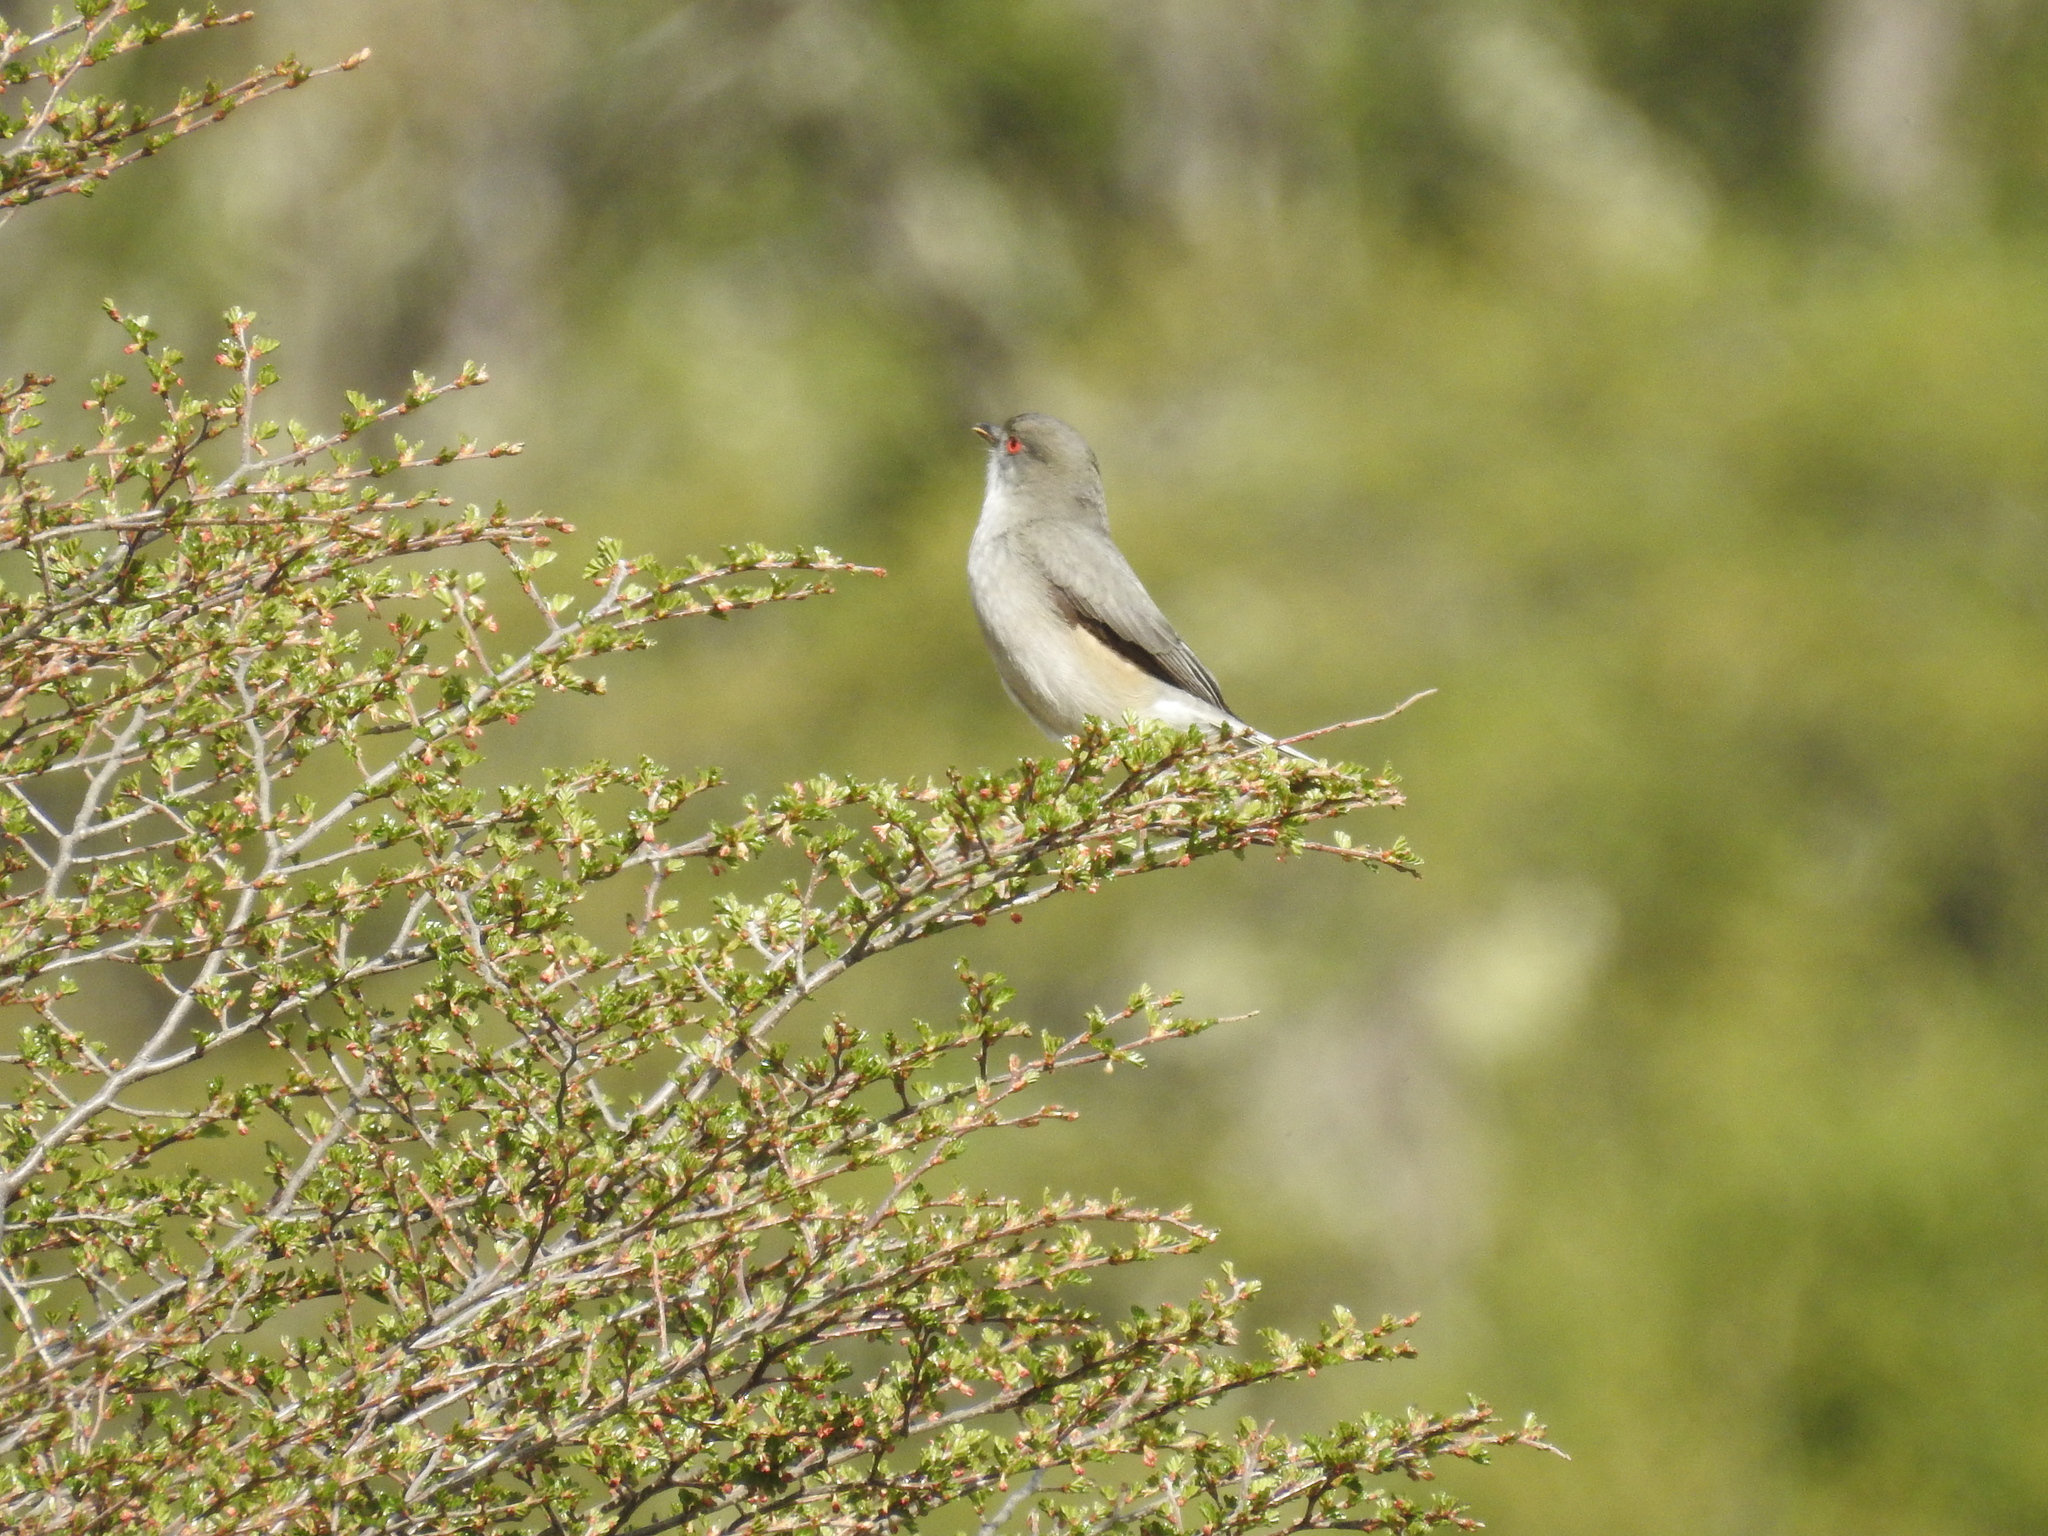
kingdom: Animalia
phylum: Chordata
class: Aves
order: Passeriformes
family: Tyrannidae
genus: Xolmis
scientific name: Xolmis pyrope
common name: Fire-eyed diucon
